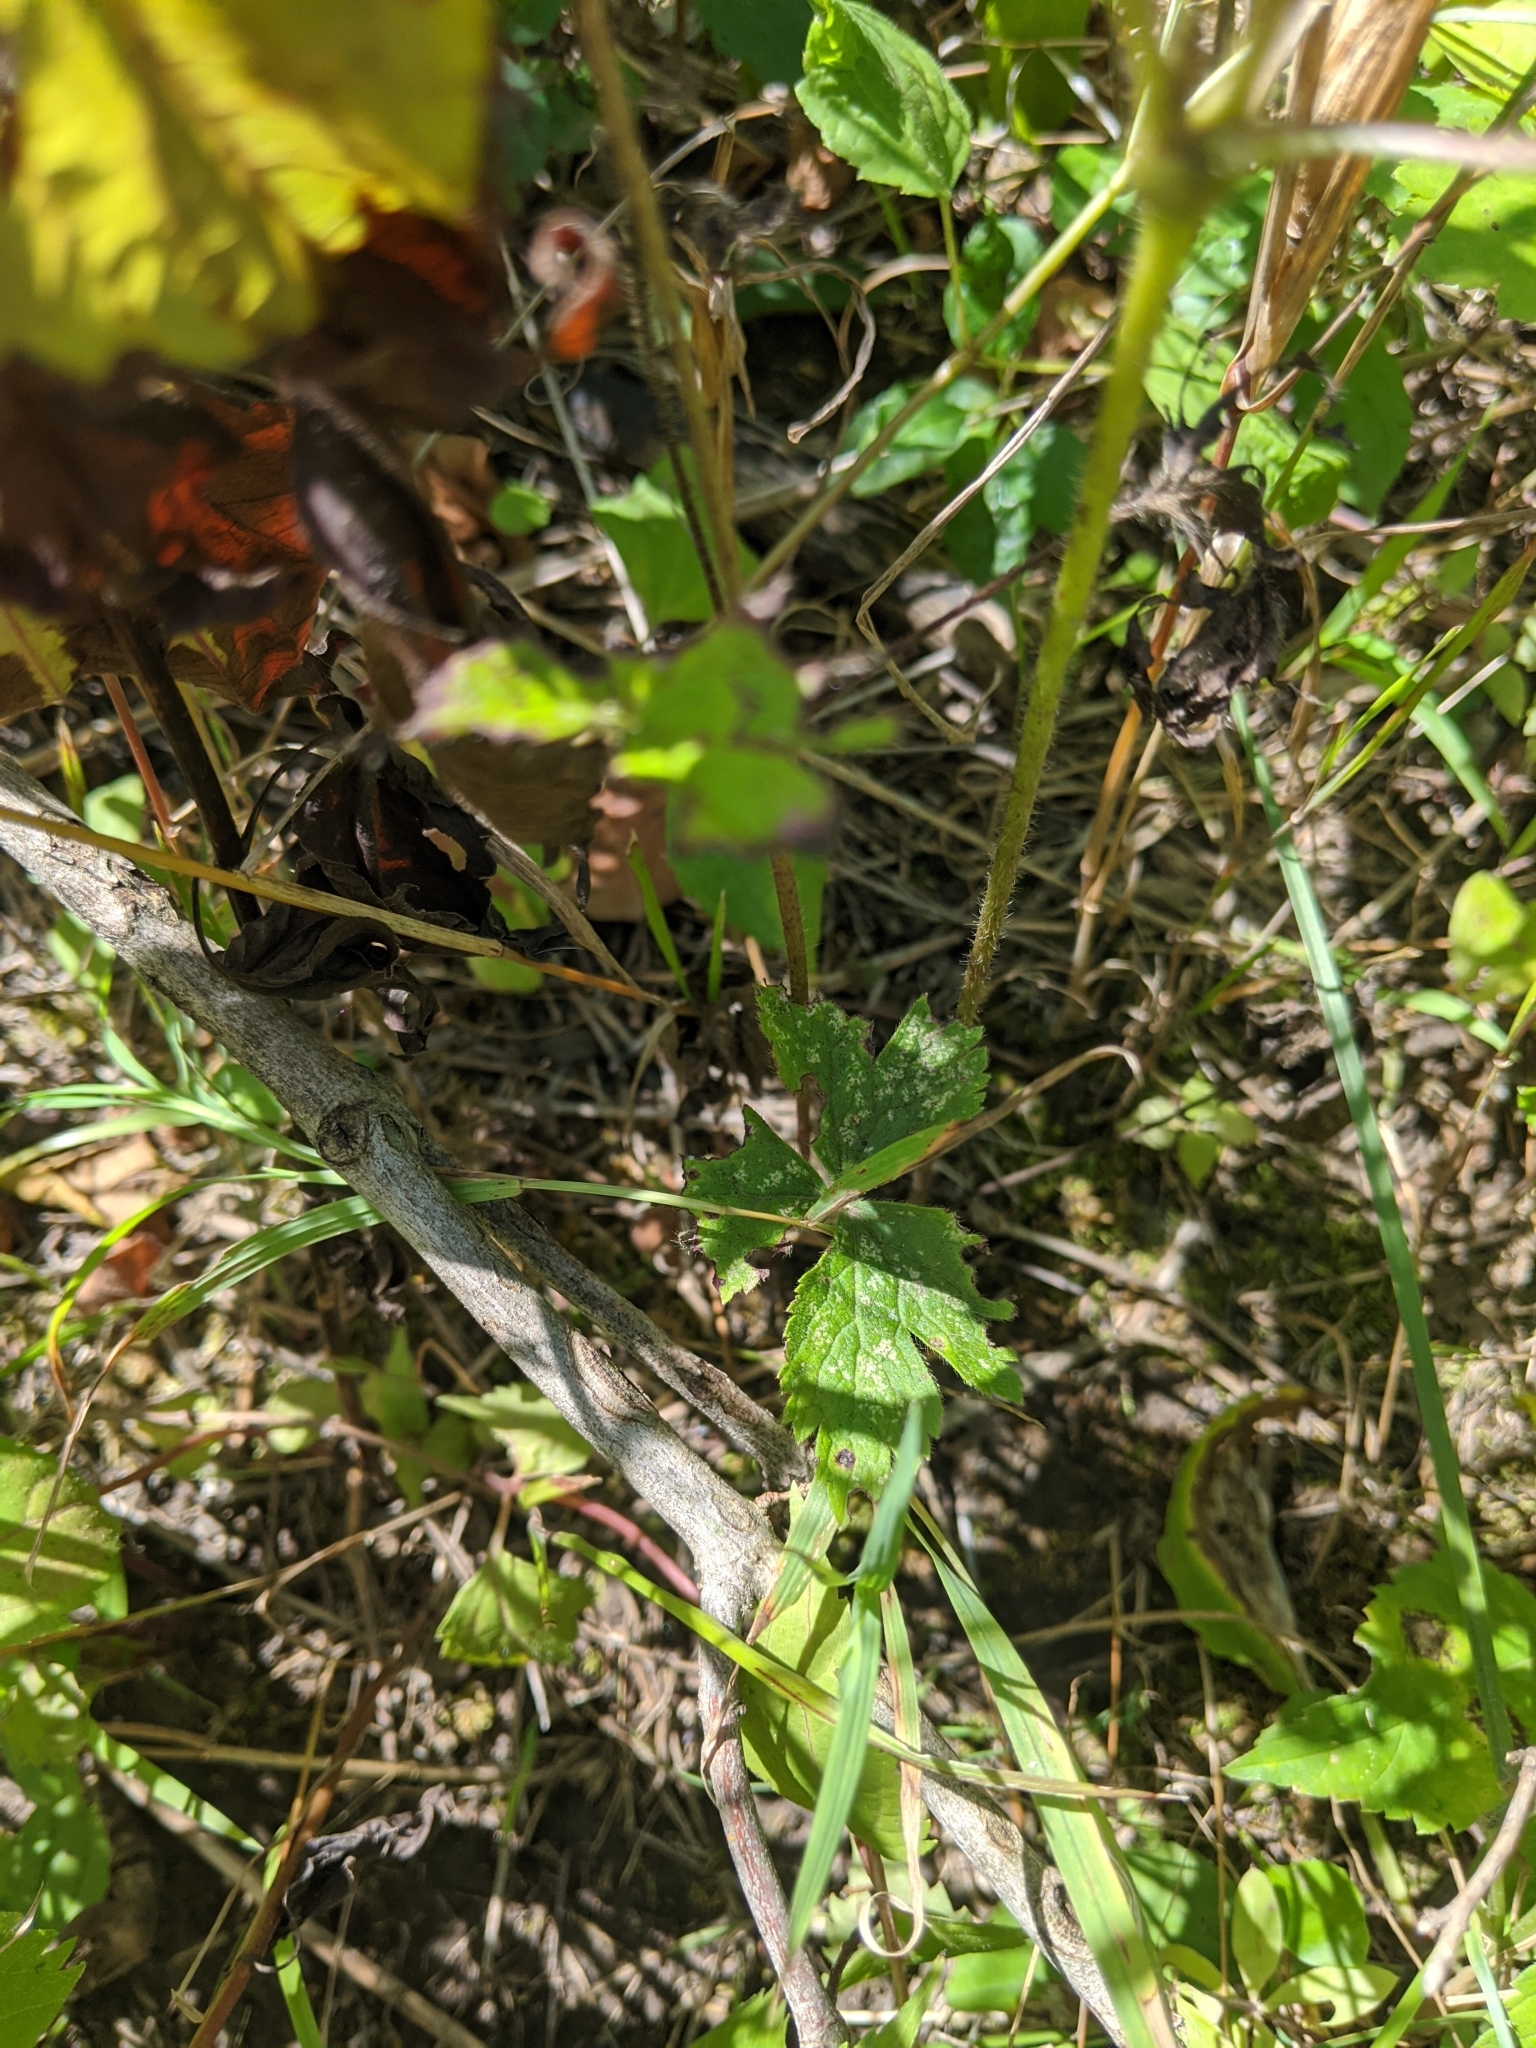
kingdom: Plantae
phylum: Tracheophyta
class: Magnoliopsida
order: Ranunculales
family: Ranunculaceae
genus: Anemone
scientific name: Anemone virginiana
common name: Tall anemone
